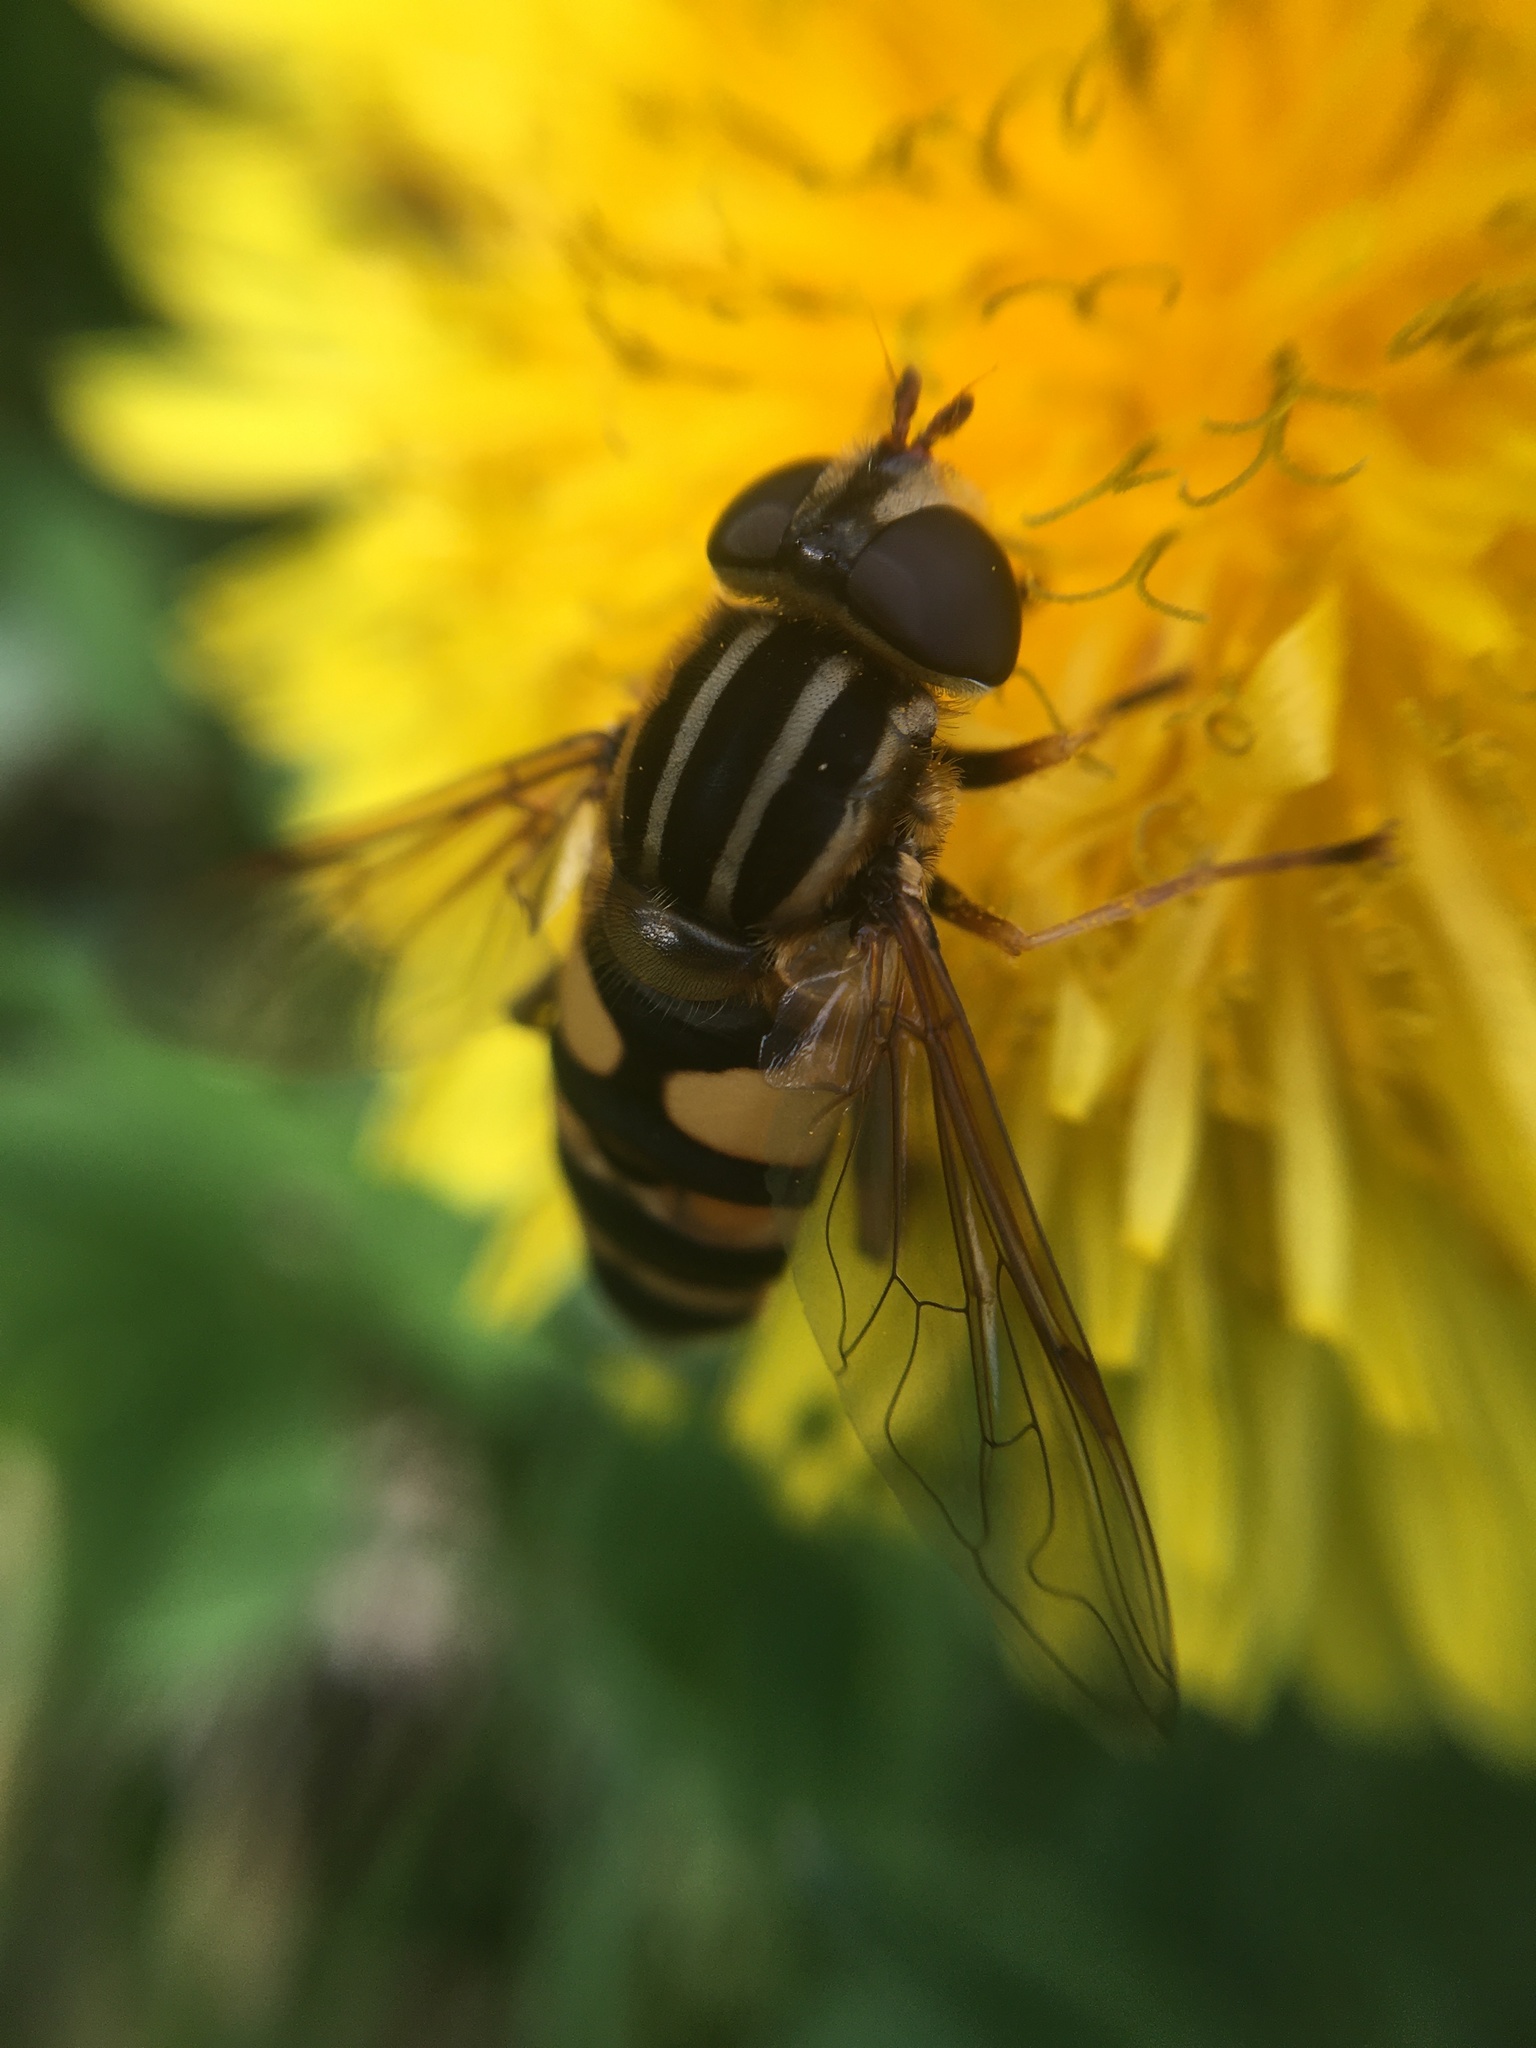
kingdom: Animalia
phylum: Arthropoda
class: Insecta
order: Diptera
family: Syrphidae
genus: Helophilus
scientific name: Helophilus fasciatus
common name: Narrow-headed marsh fly
